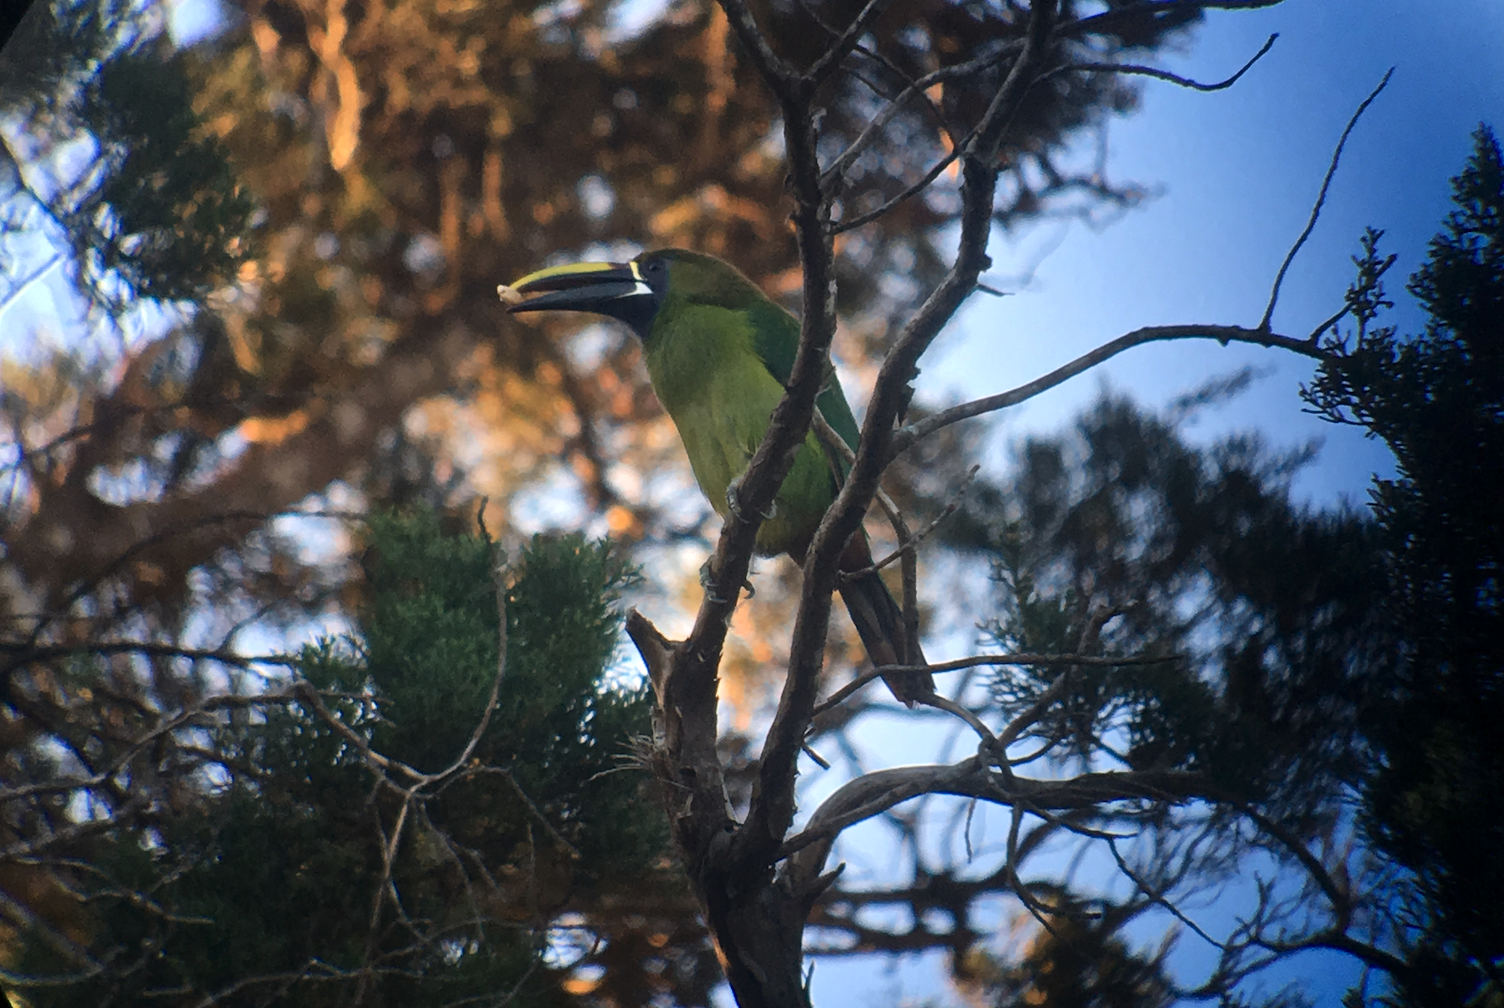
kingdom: Animalia
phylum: Chordata
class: Aves
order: Piciformes
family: Ramphastidae
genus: Aulacorhynchus
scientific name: Aulacorhynchus prasinus
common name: Emerald toucanet
